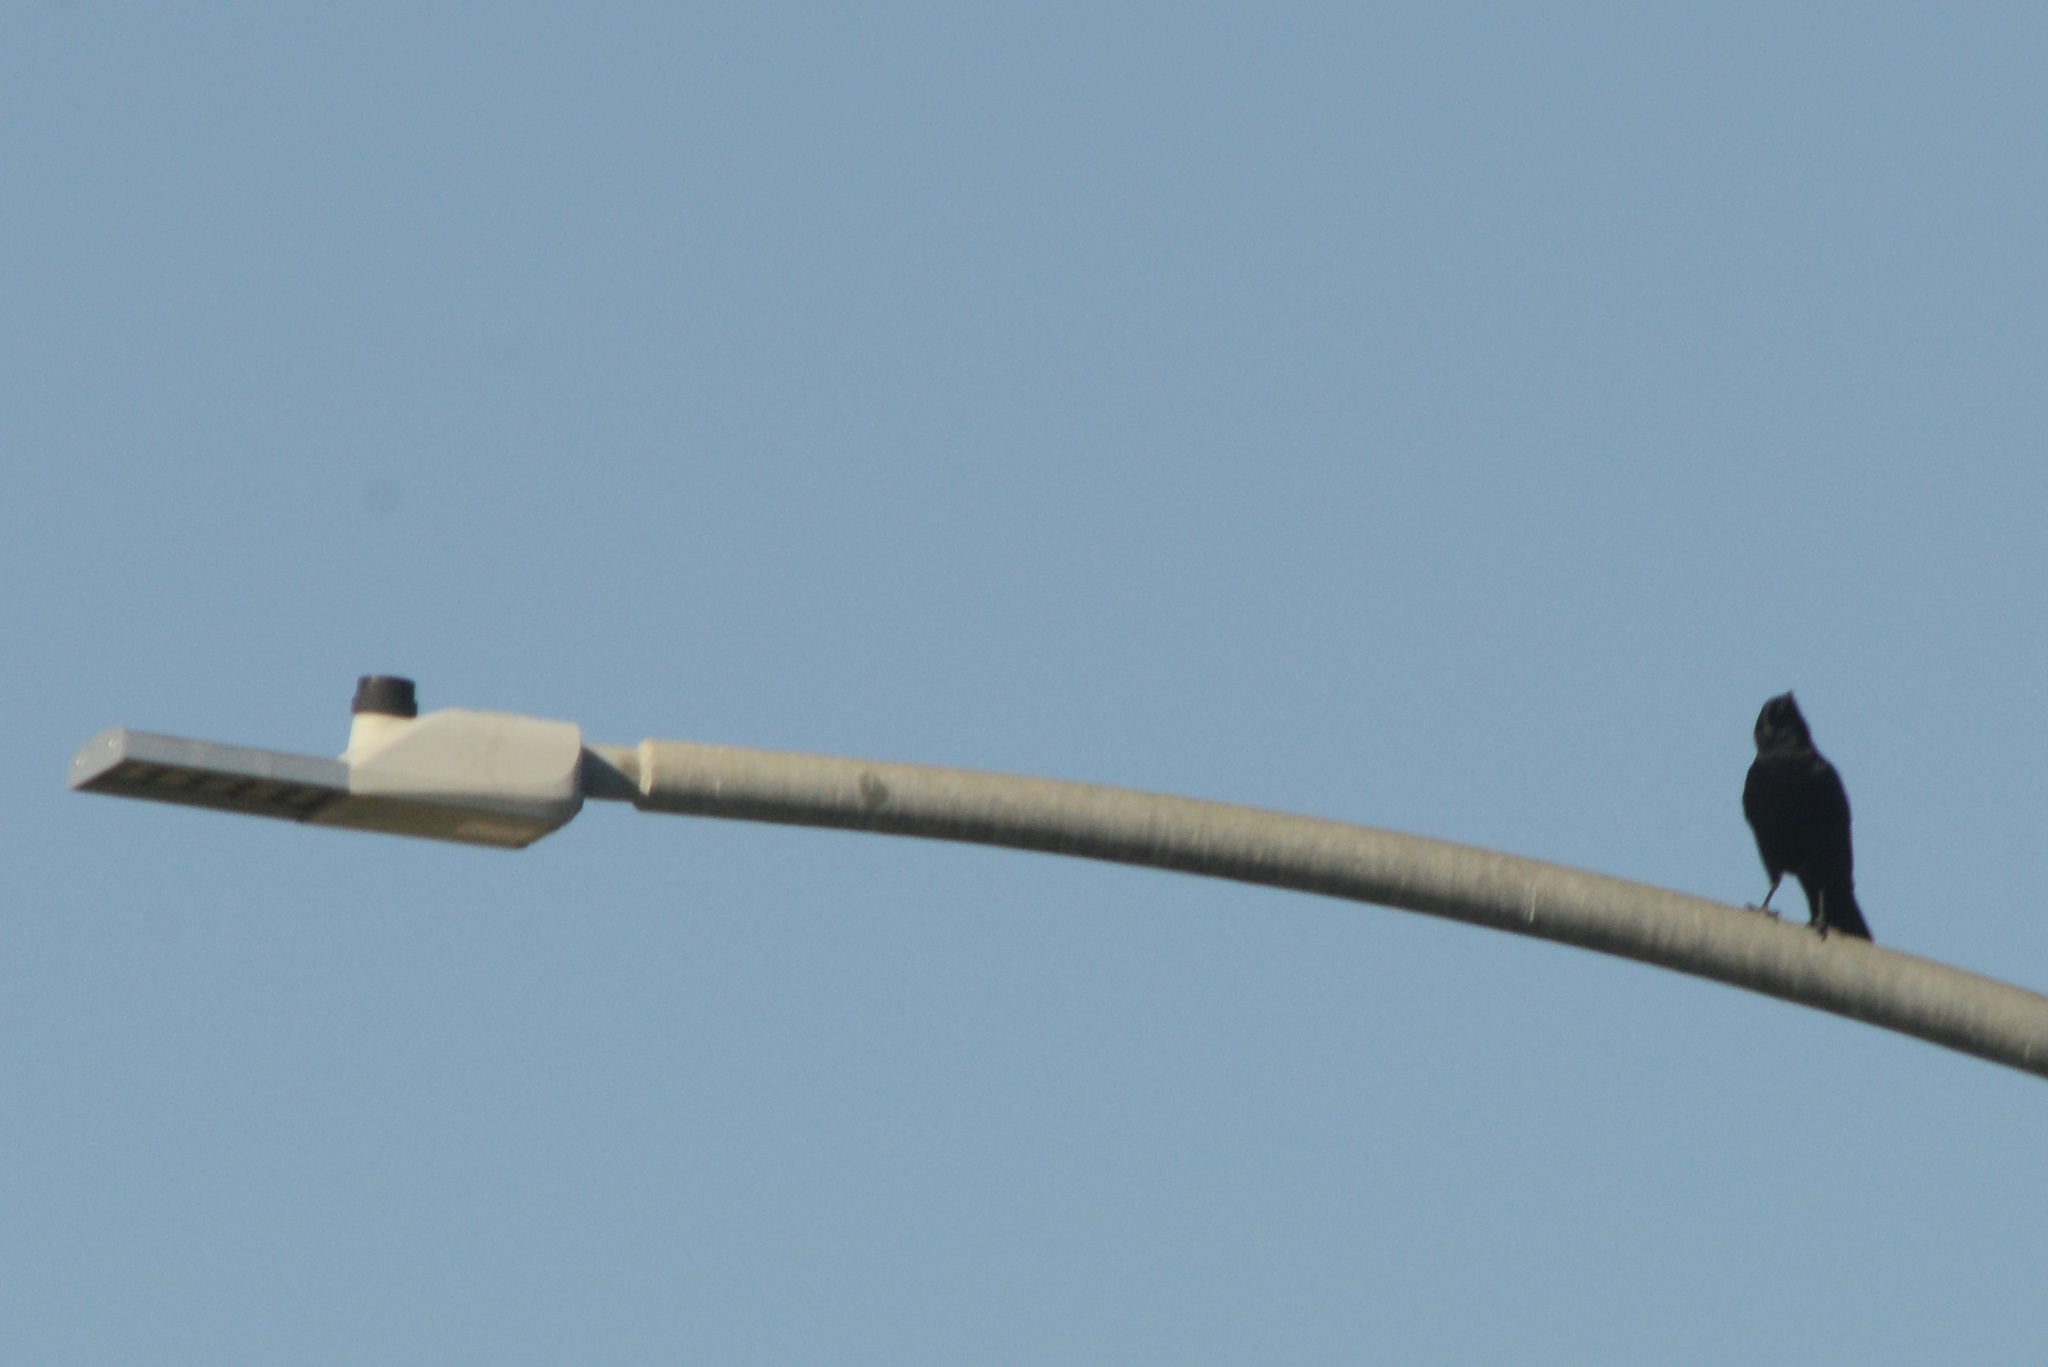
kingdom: Animalia
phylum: Chordata
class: Aves
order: Passeriformes
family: Corvidae
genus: Corvus
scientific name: Corvus brachyrhynchos
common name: American crow
